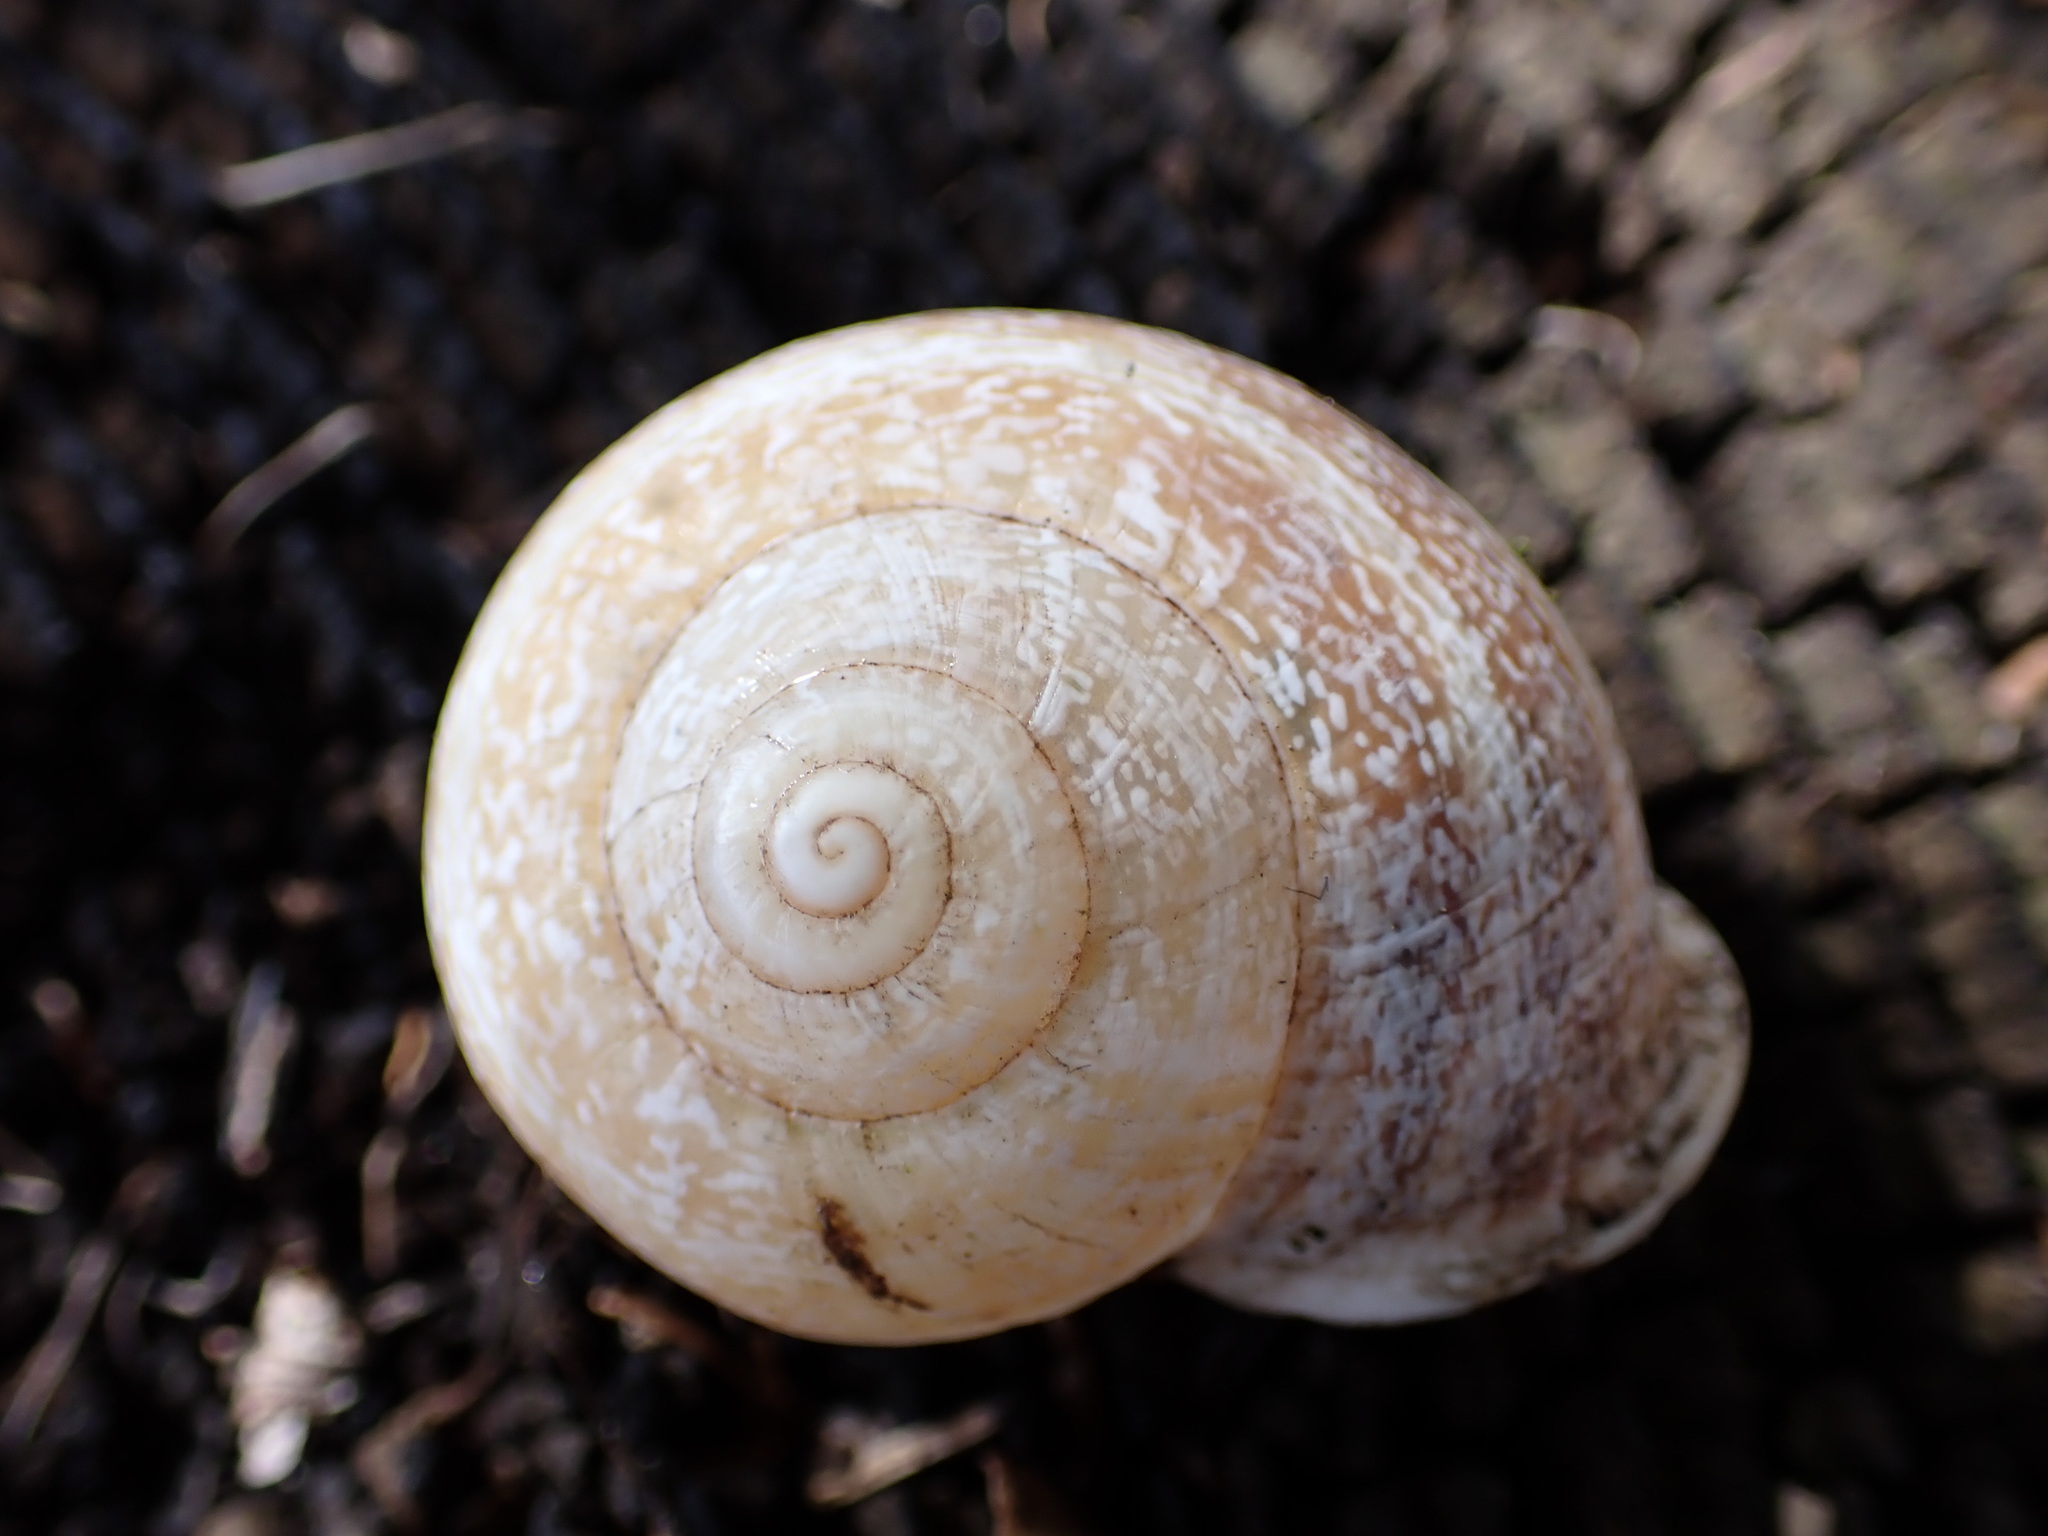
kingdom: Animalia
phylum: Mollusca
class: Gastropoda
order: Stylommatophora
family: Helicidae
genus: Otala
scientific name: Otala lactea
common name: Milk snail
